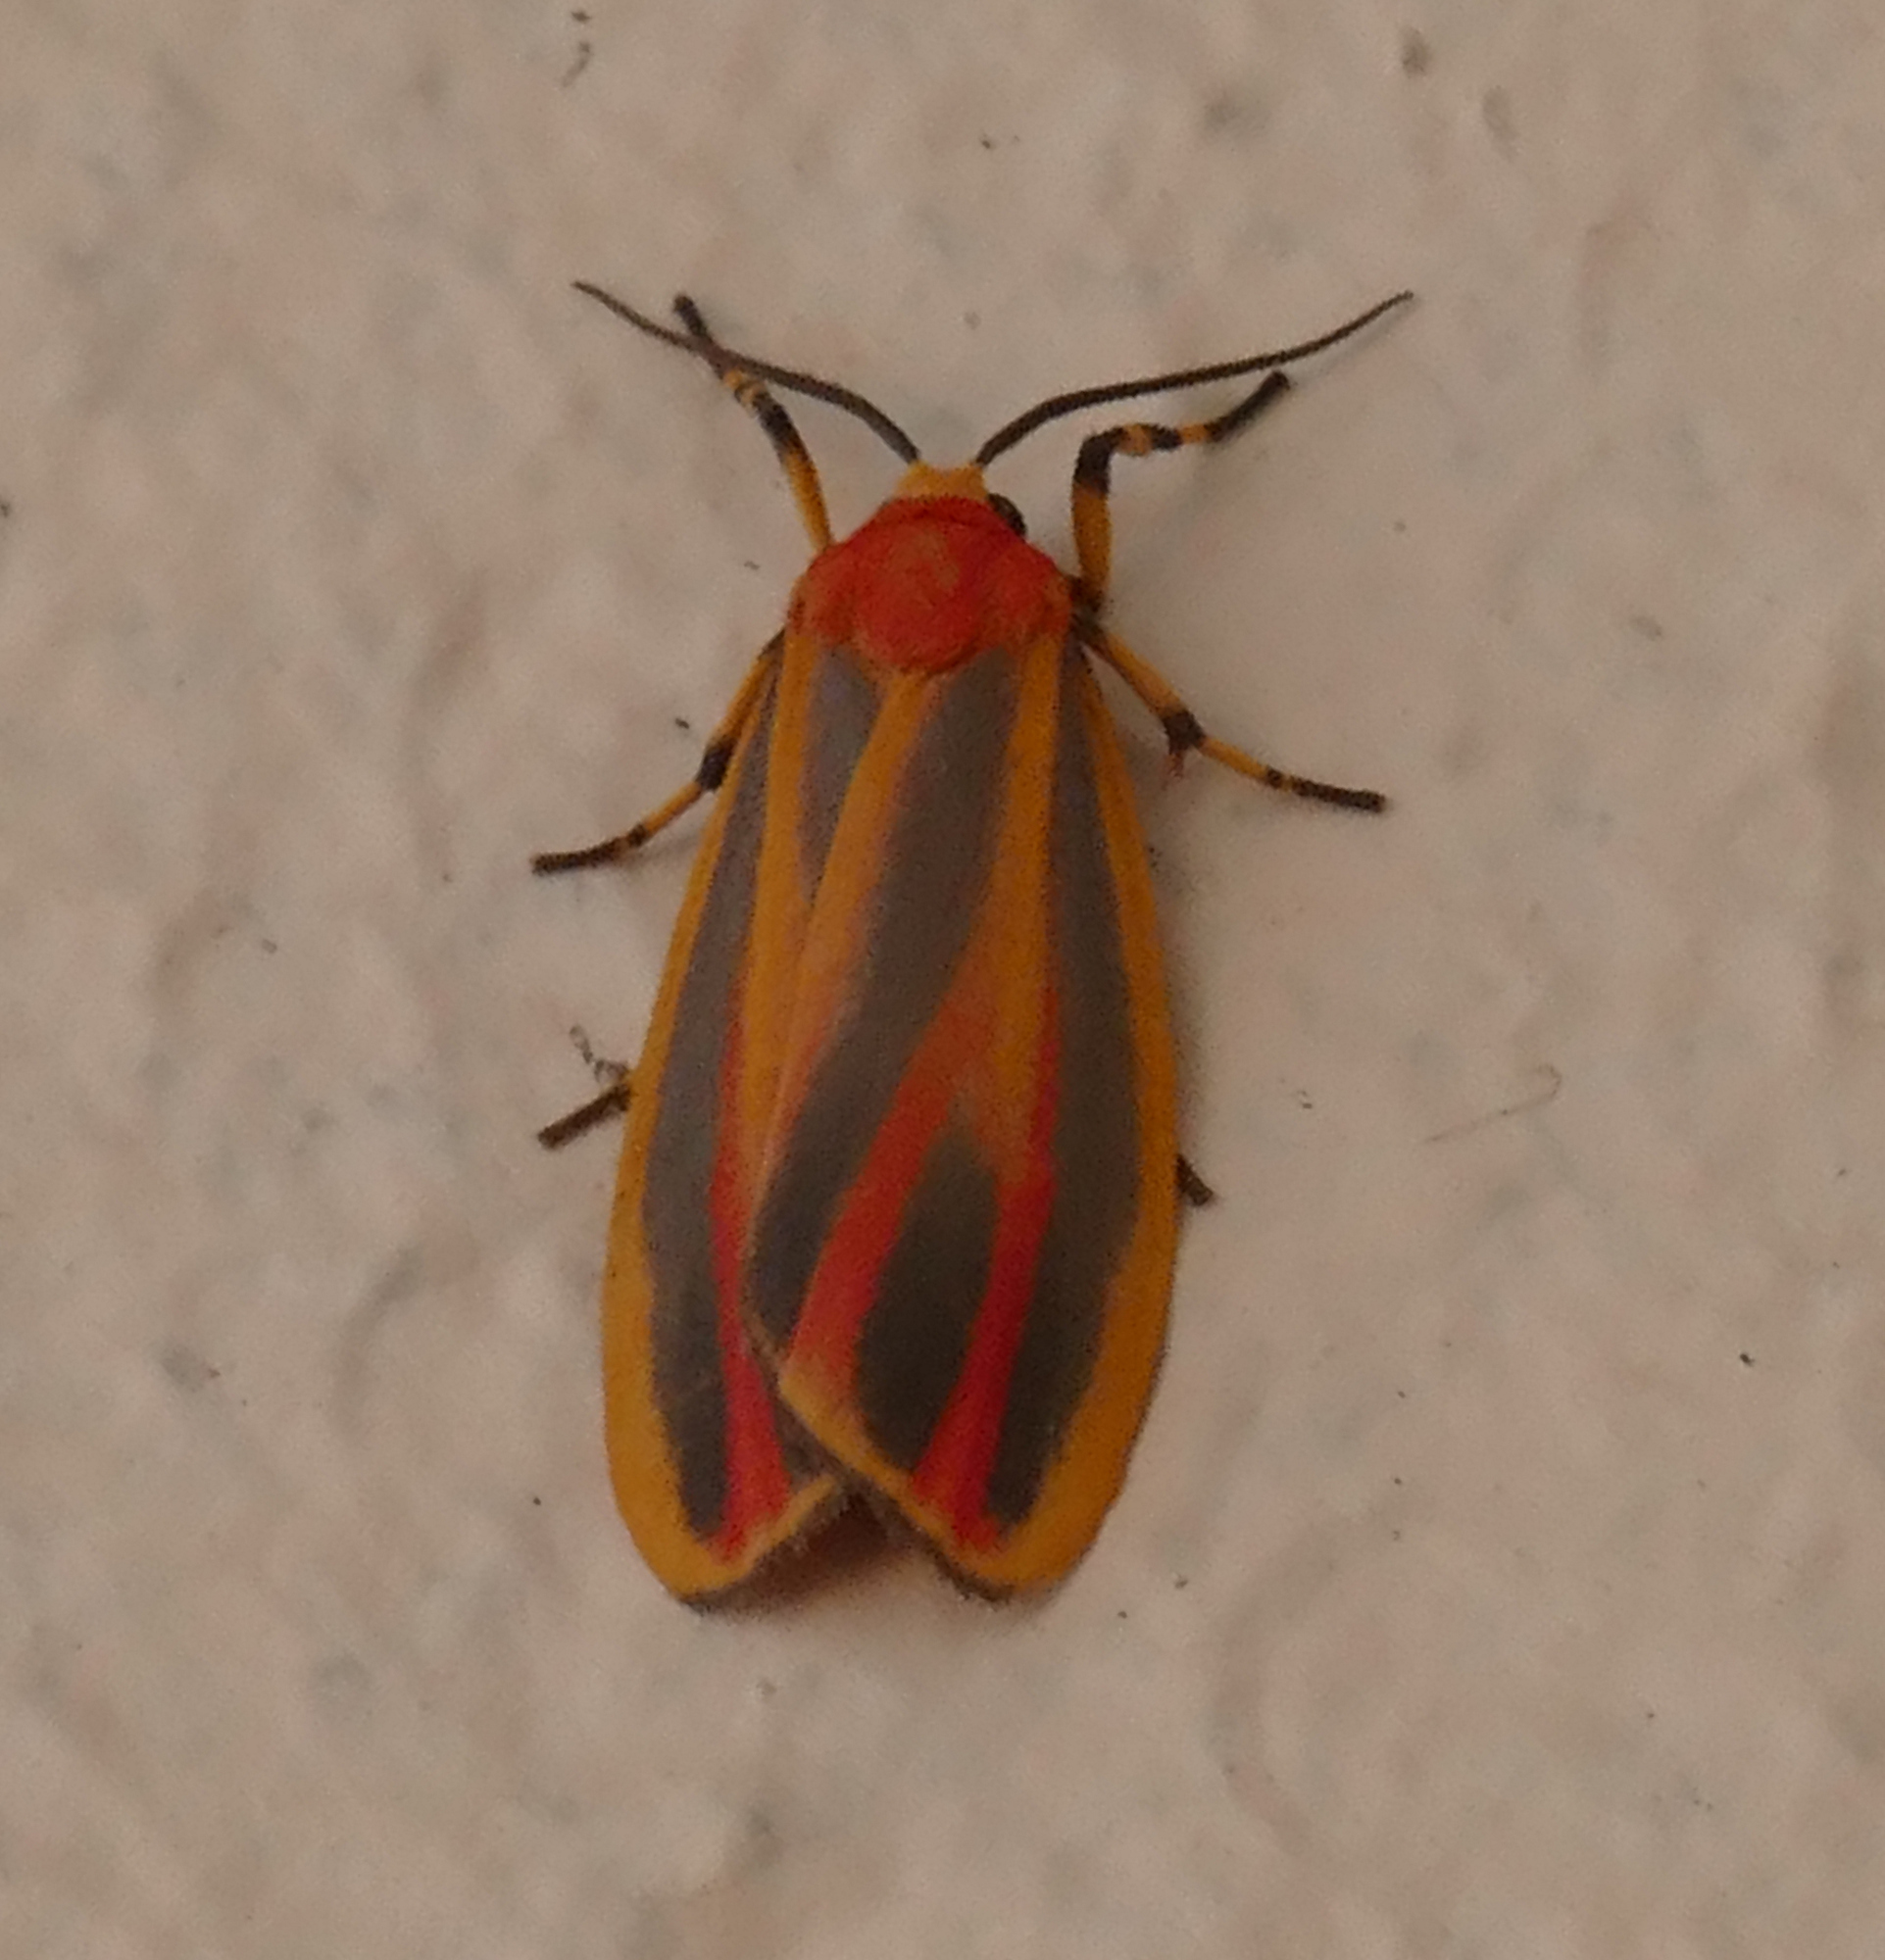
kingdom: Animalia
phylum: Arthropoda
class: Insecta
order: Lepidoptera
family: Erebidae
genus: Hypoprepia
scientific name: Hypoprepia fucosa
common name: Painted lichen moth
